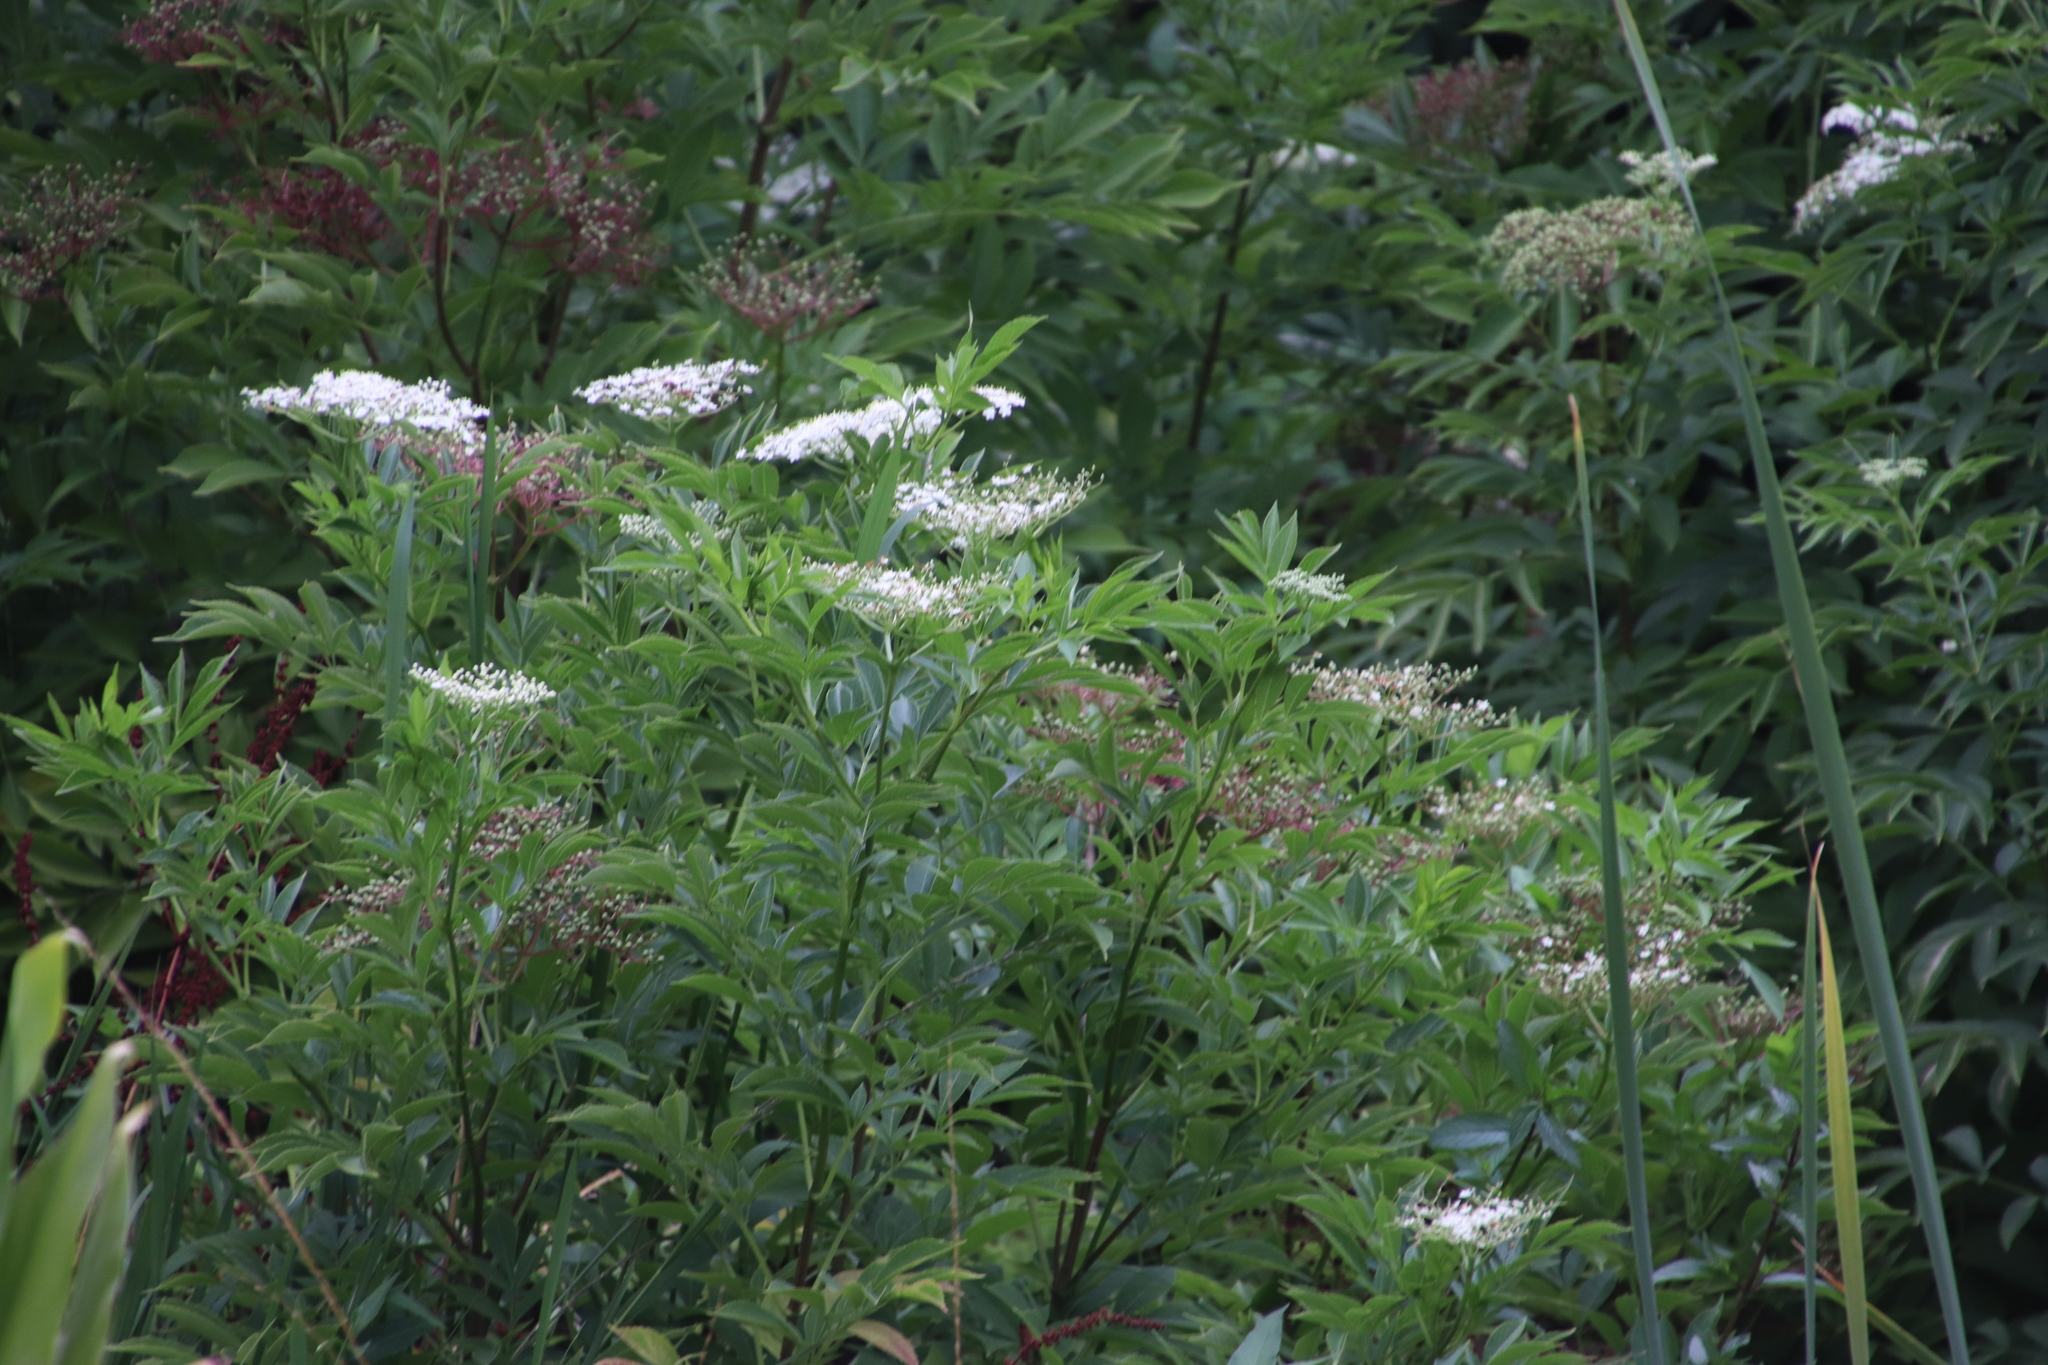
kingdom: Plantae
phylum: Tracheophyta
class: Magnoliopsida
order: Dipsacales
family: Viburnaceae
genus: Sambucus
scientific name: Sambucus nigra
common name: Elder
